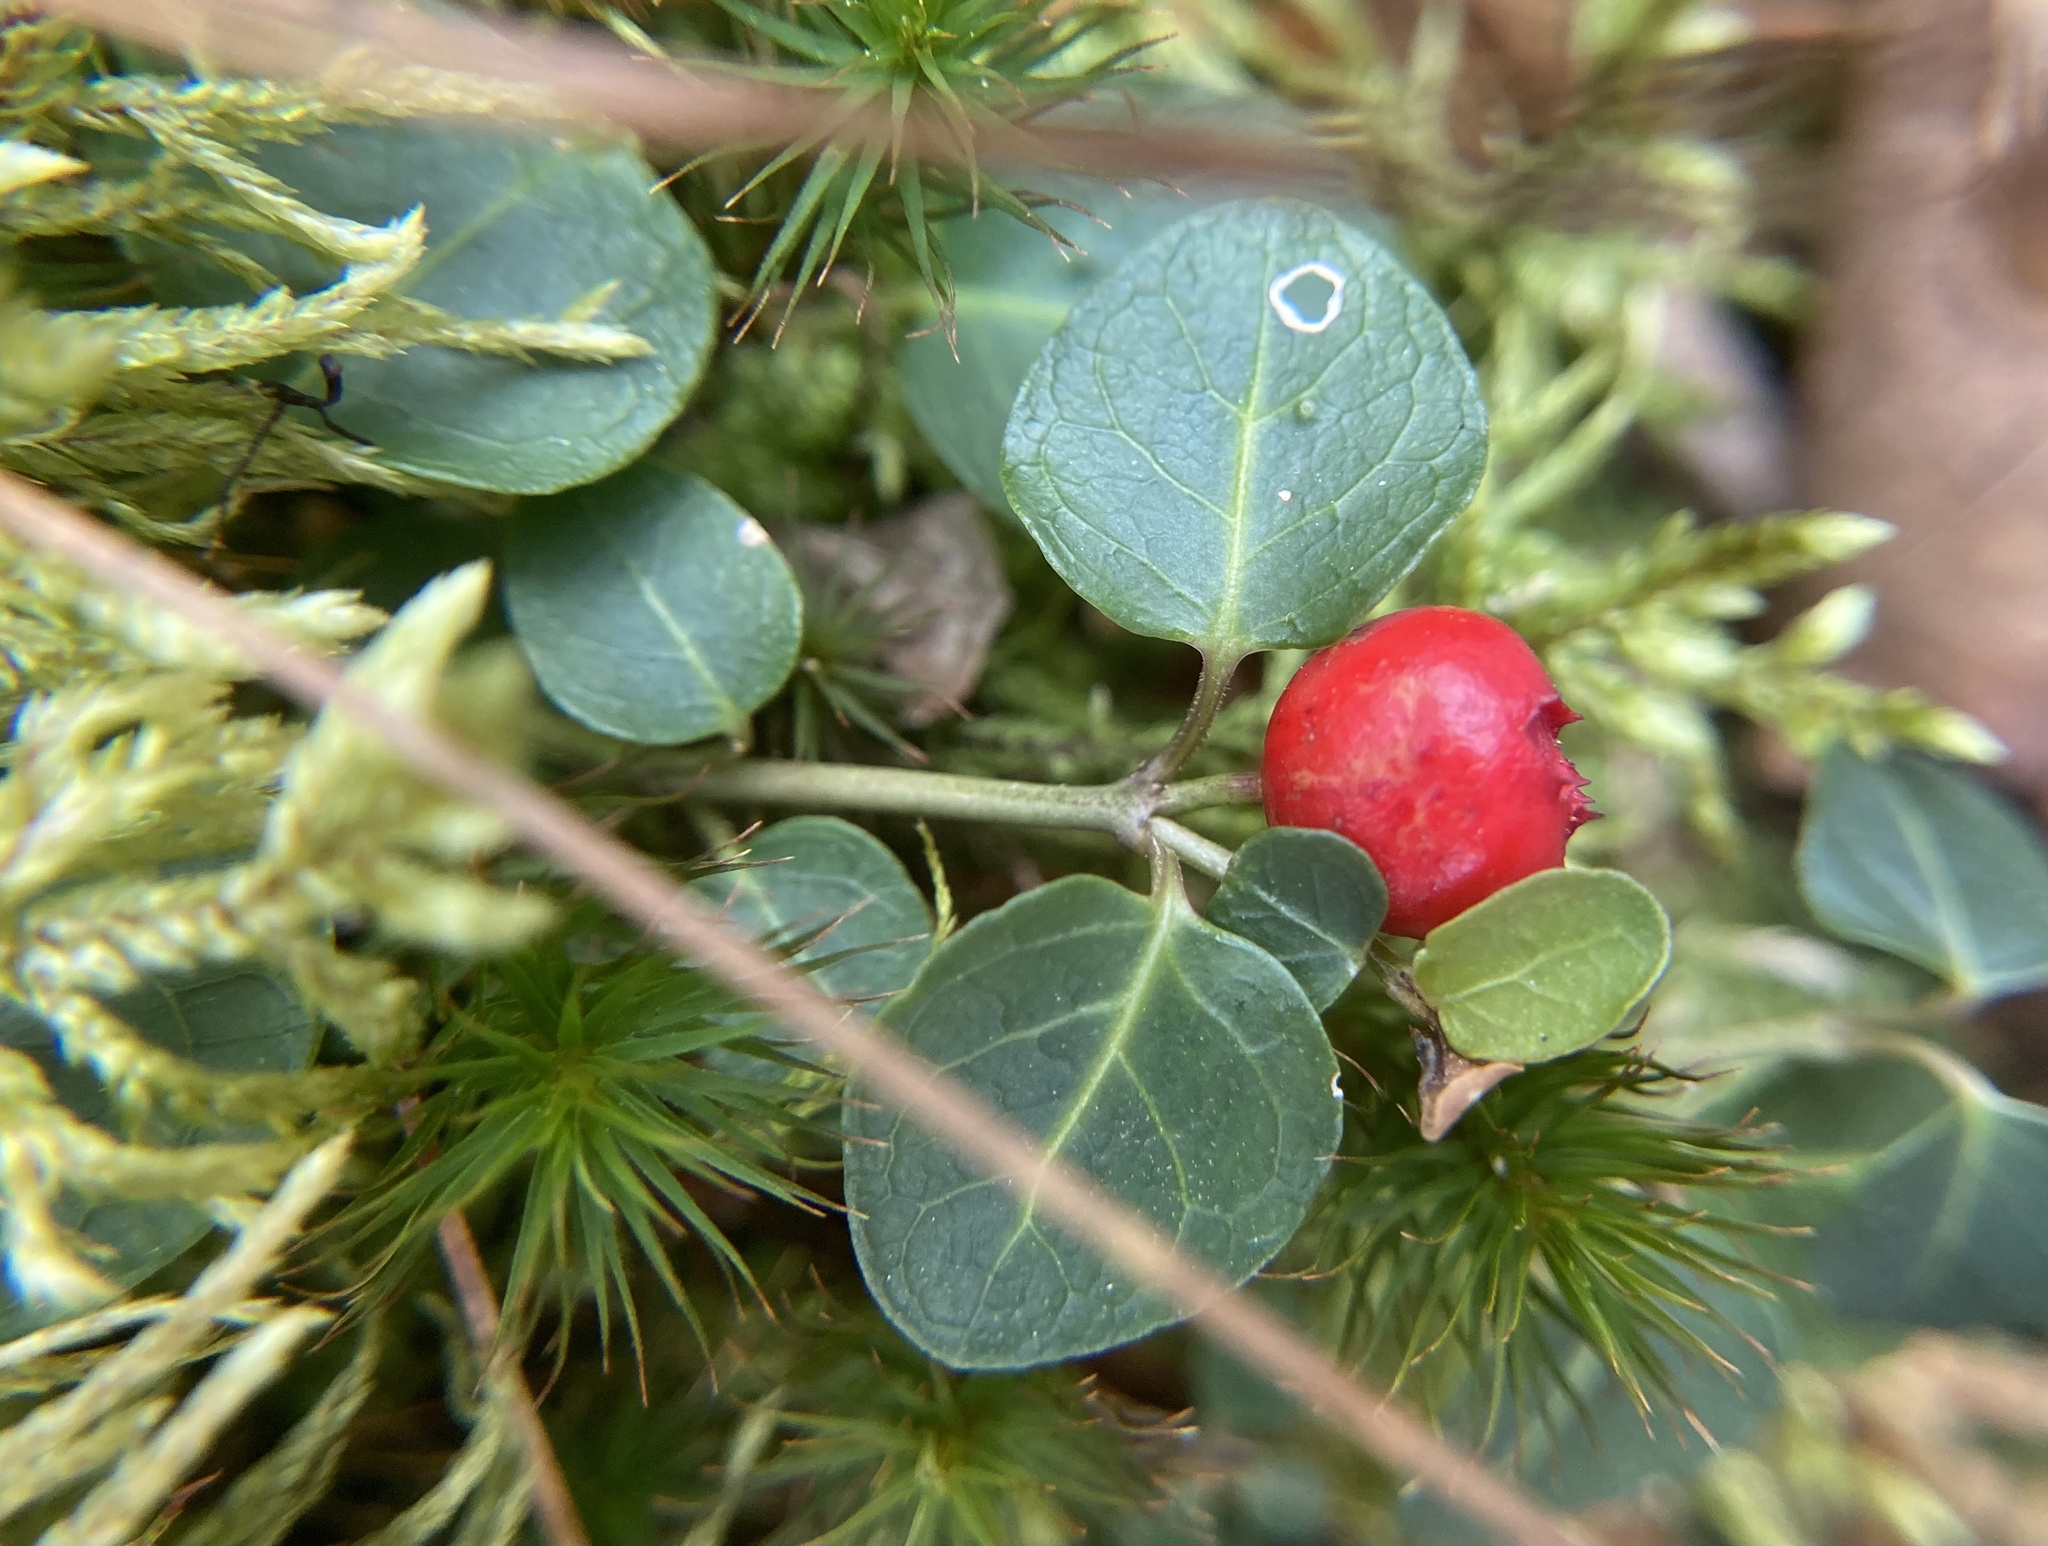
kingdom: Plantae
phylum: Tracheophyta
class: Magnoliopsida
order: Gentianales
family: Rubiaceae
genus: Mitchella
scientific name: Mitchella repens
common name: Partridge-berry
